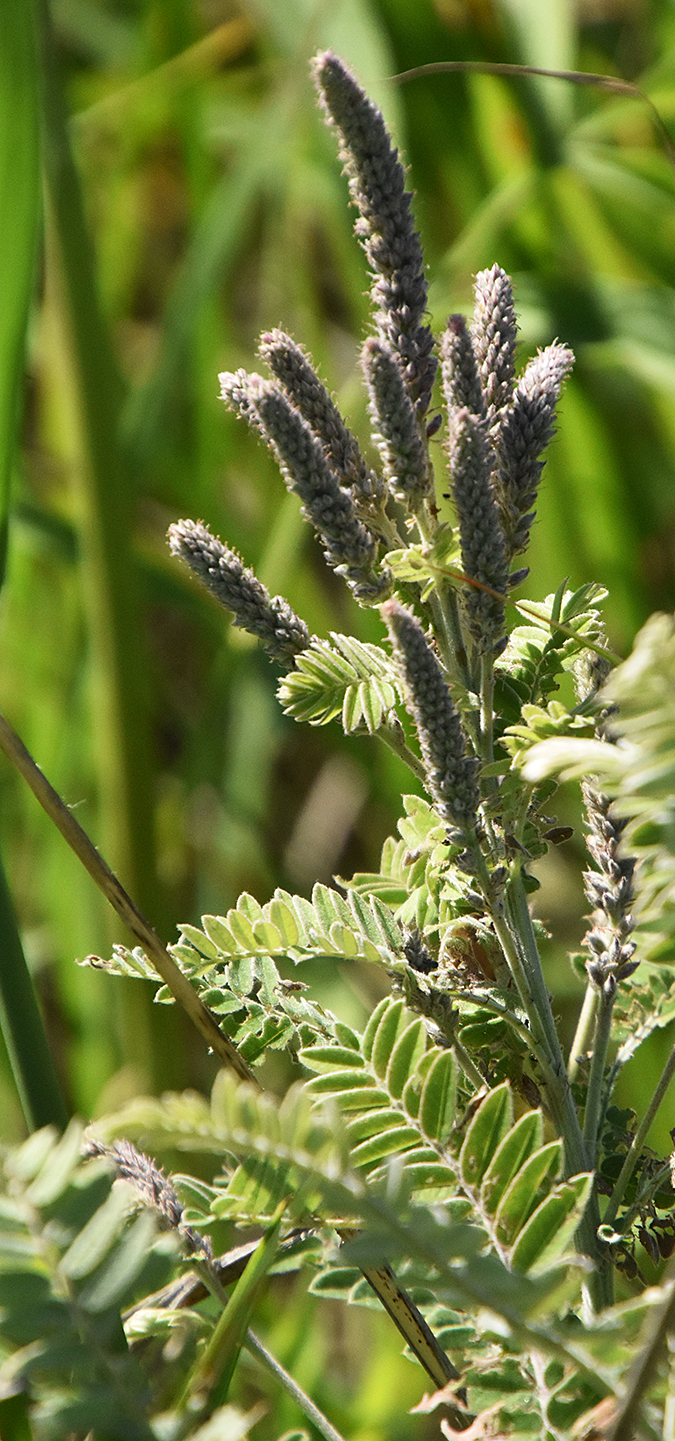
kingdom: Plantae
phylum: Tracheophyta
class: Magnoliopsida
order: Fabales
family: Fabaceae
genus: Amorpha
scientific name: Amorpha canescens
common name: Leadplant
